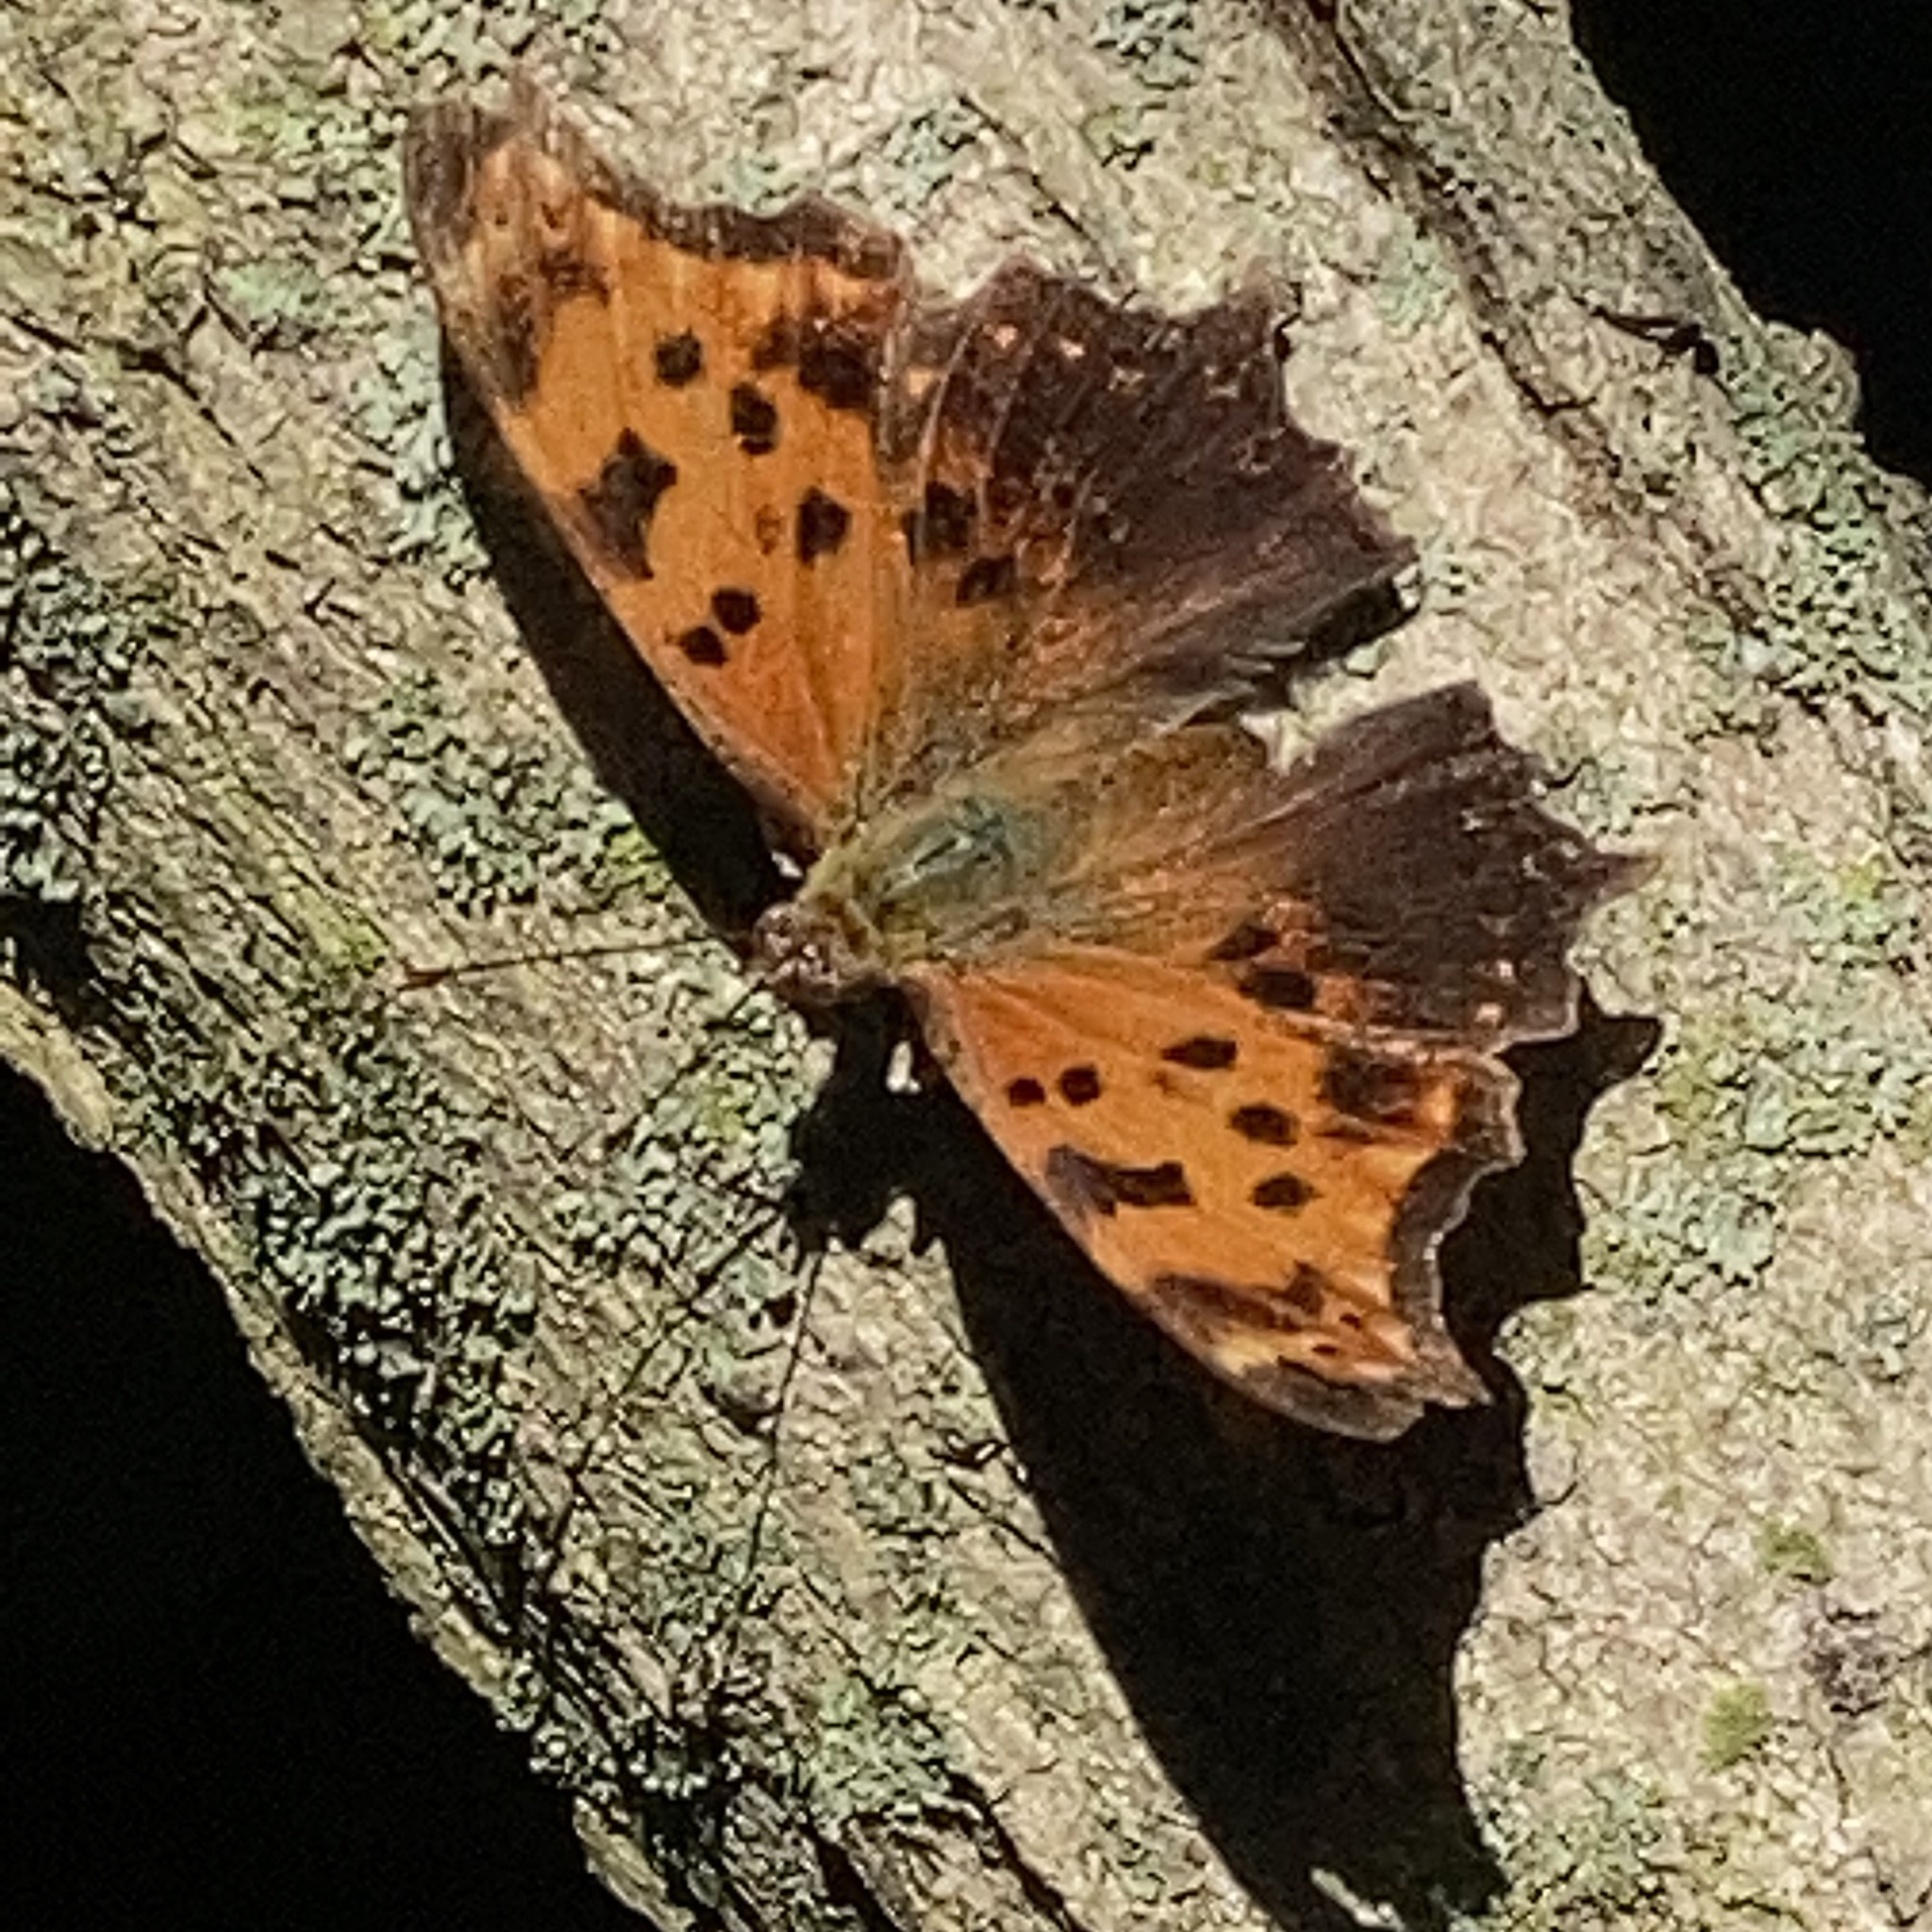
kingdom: Animalia
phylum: Arthropoda
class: Insecta
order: Lepidoptera
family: Nymphalidae
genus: Polygonia
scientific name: Polygonia comma
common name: Eastern comma
